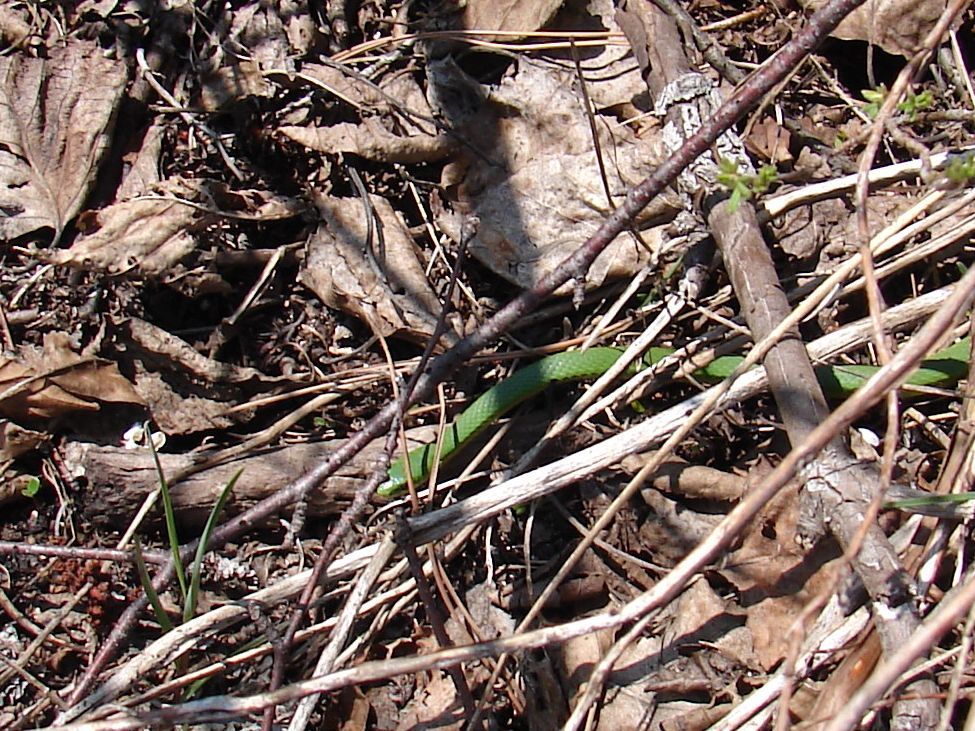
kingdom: Animalia
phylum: Chordata
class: Squamata
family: Colubridae
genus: Opheodrys
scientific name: Opheodrys vernalis
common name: Smooth green snake
